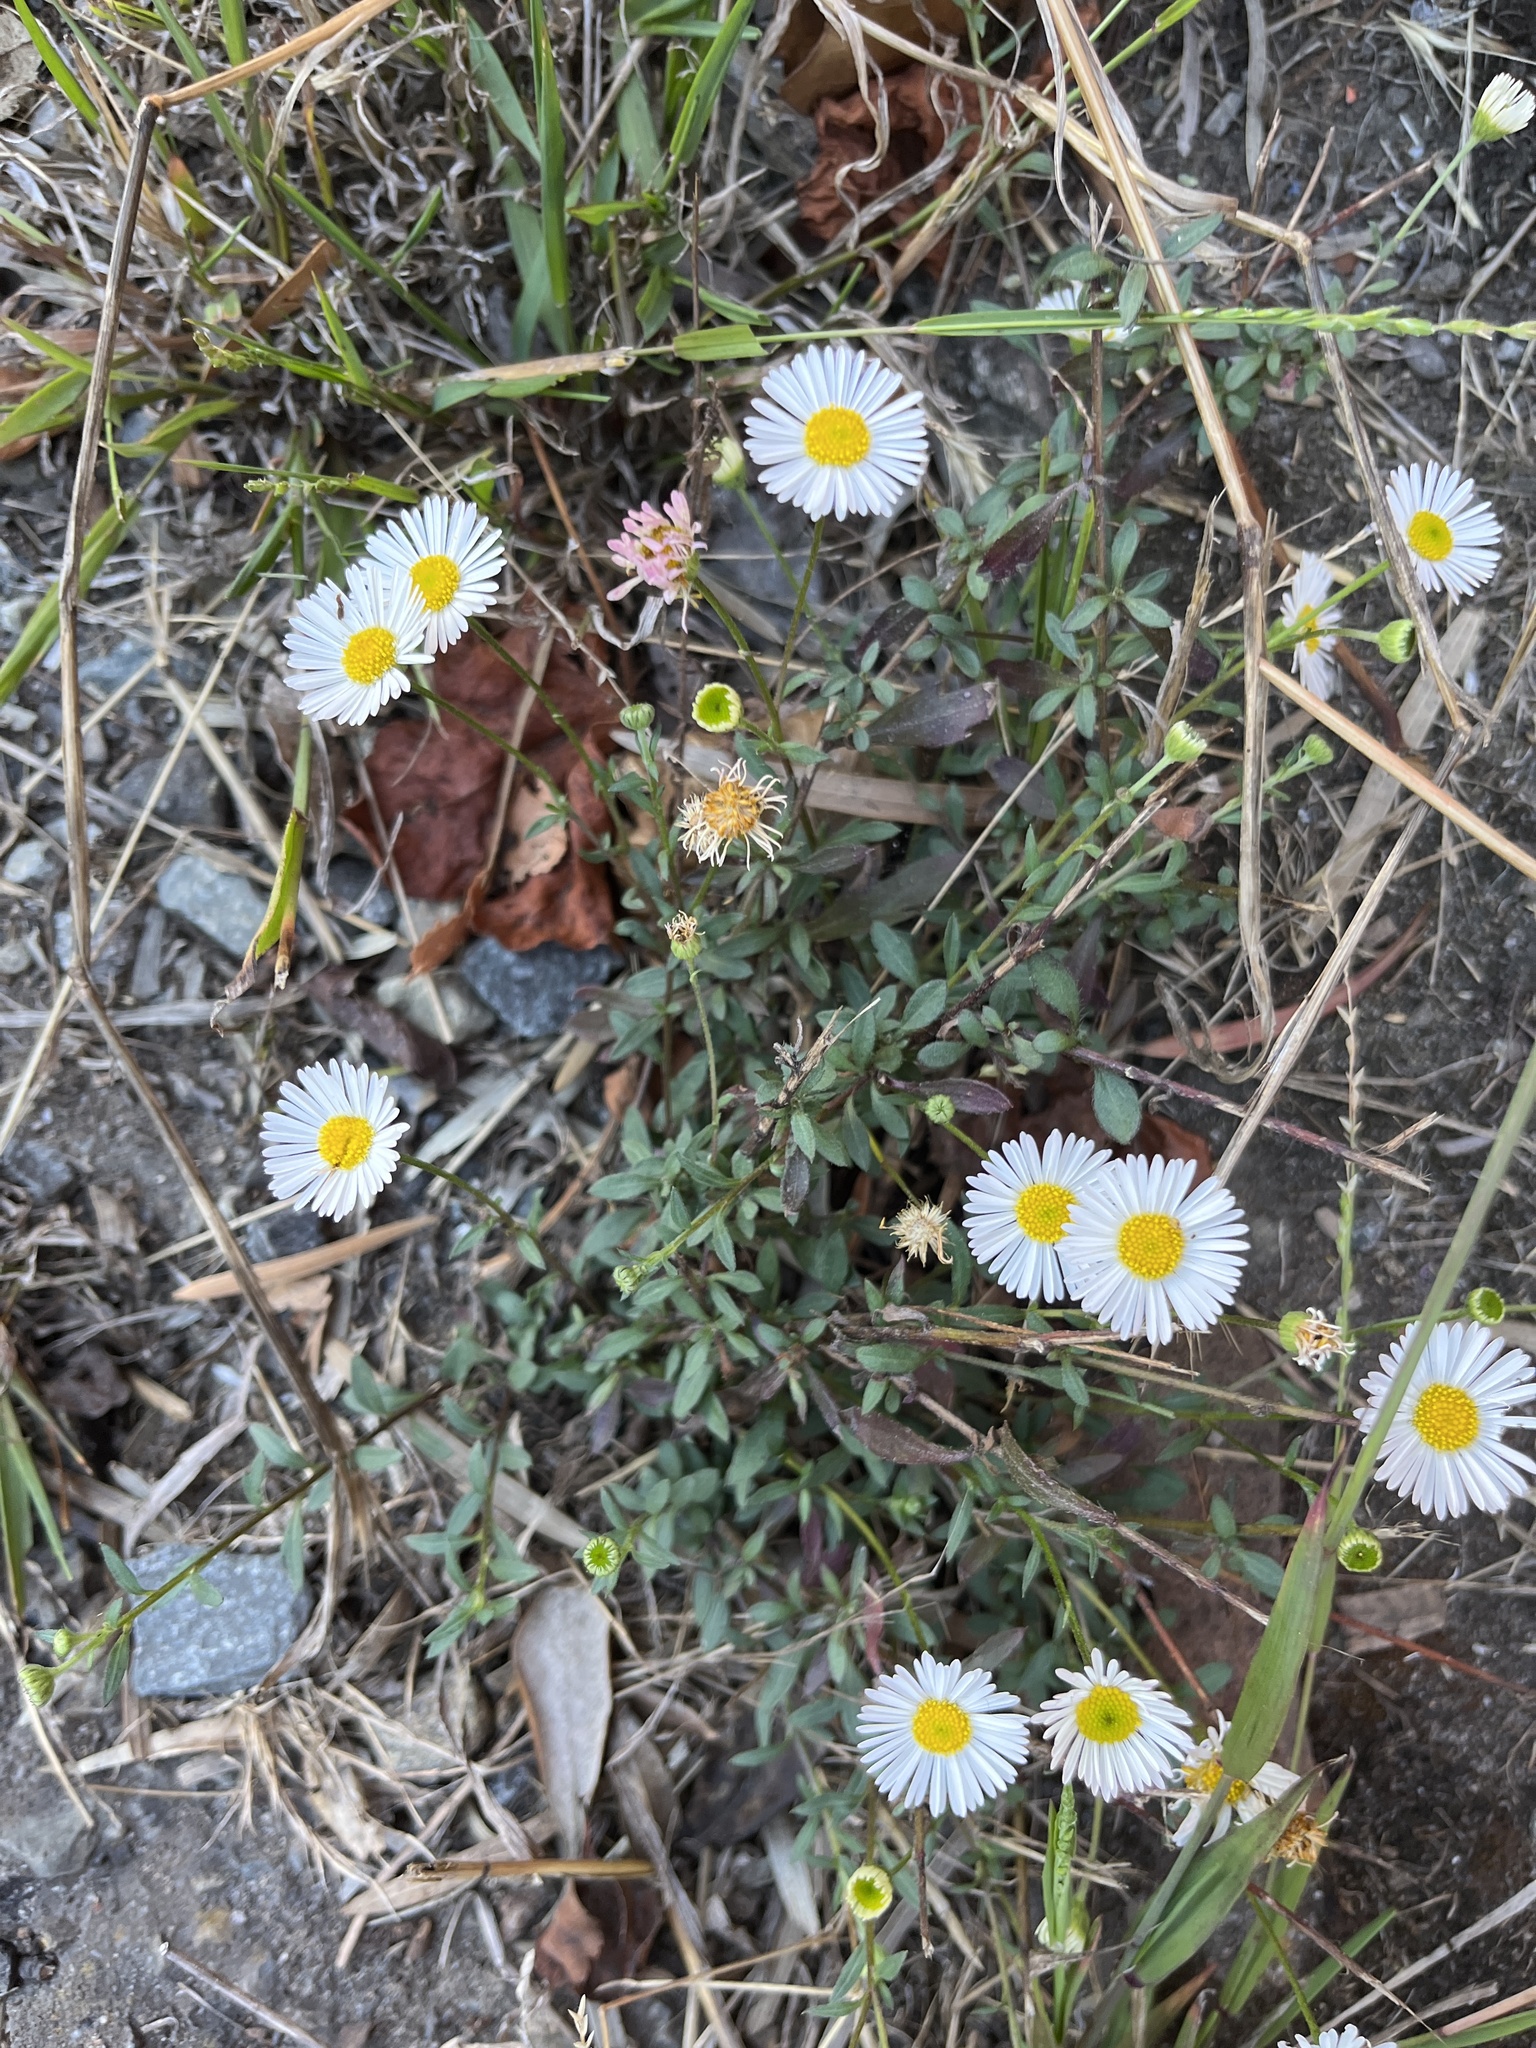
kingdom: Plantae
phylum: Tracheophyta
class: Magnoliopsida
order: Asterales
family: Asteraceae
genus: Erigeron
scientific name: Erigeron karvinskianus
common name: Mexican fleabane
